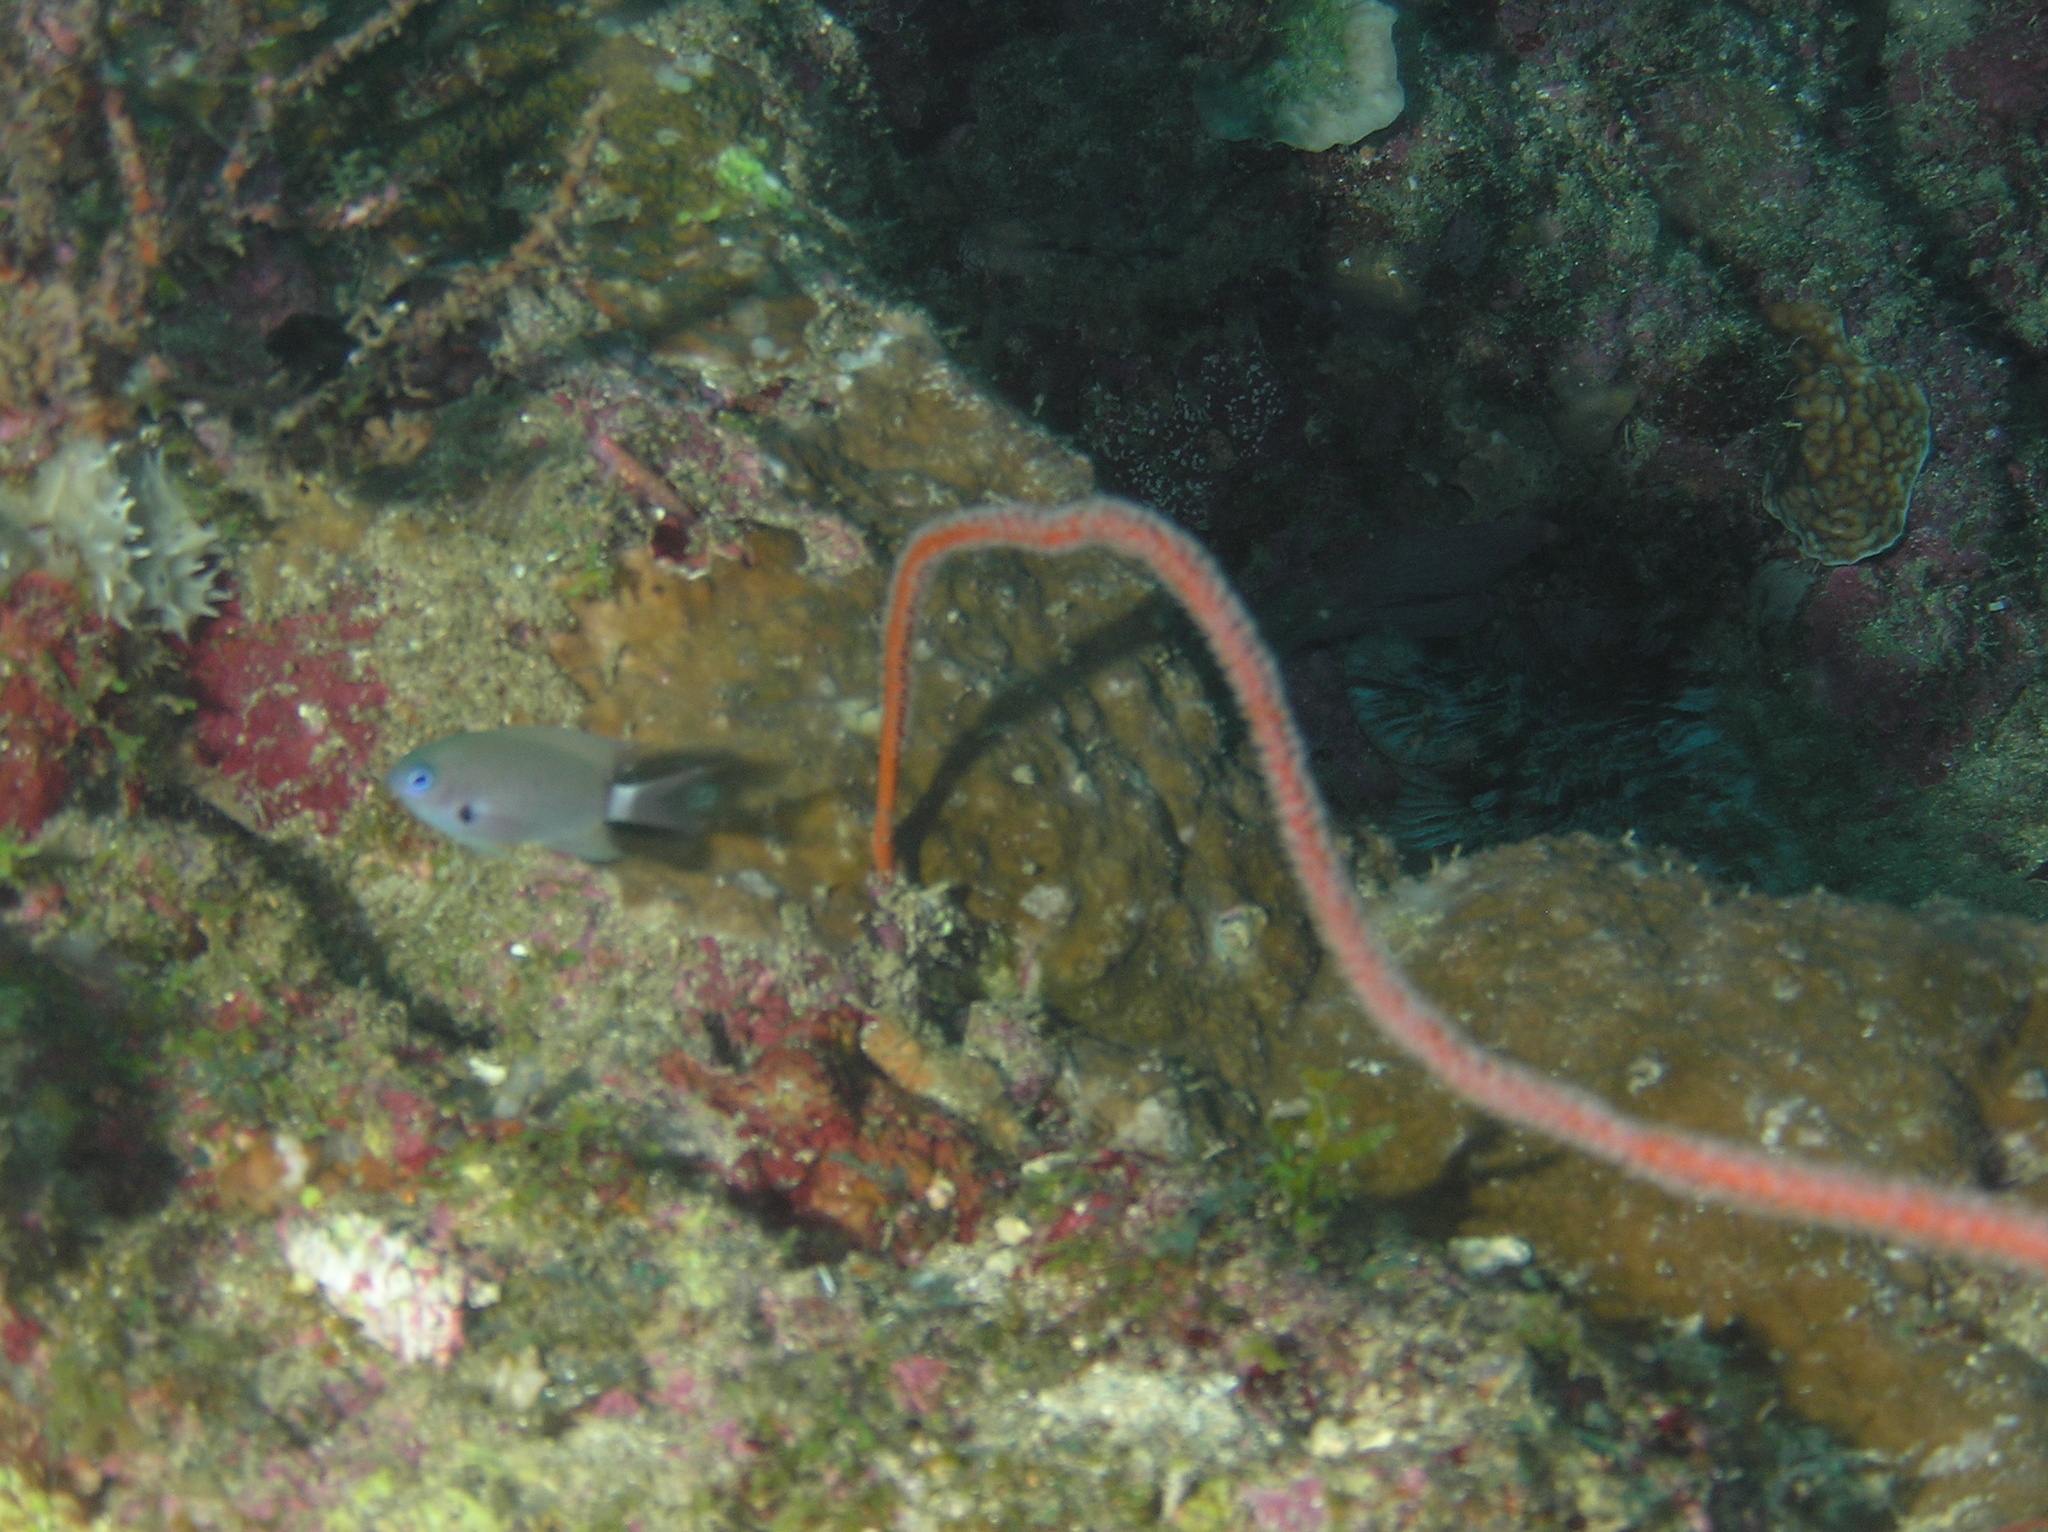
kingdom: Animalia
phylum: Chordata
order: Perciformes
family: Pomacentridae
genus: Chromis
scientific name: Chromis delta
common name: Deep reef chromis
